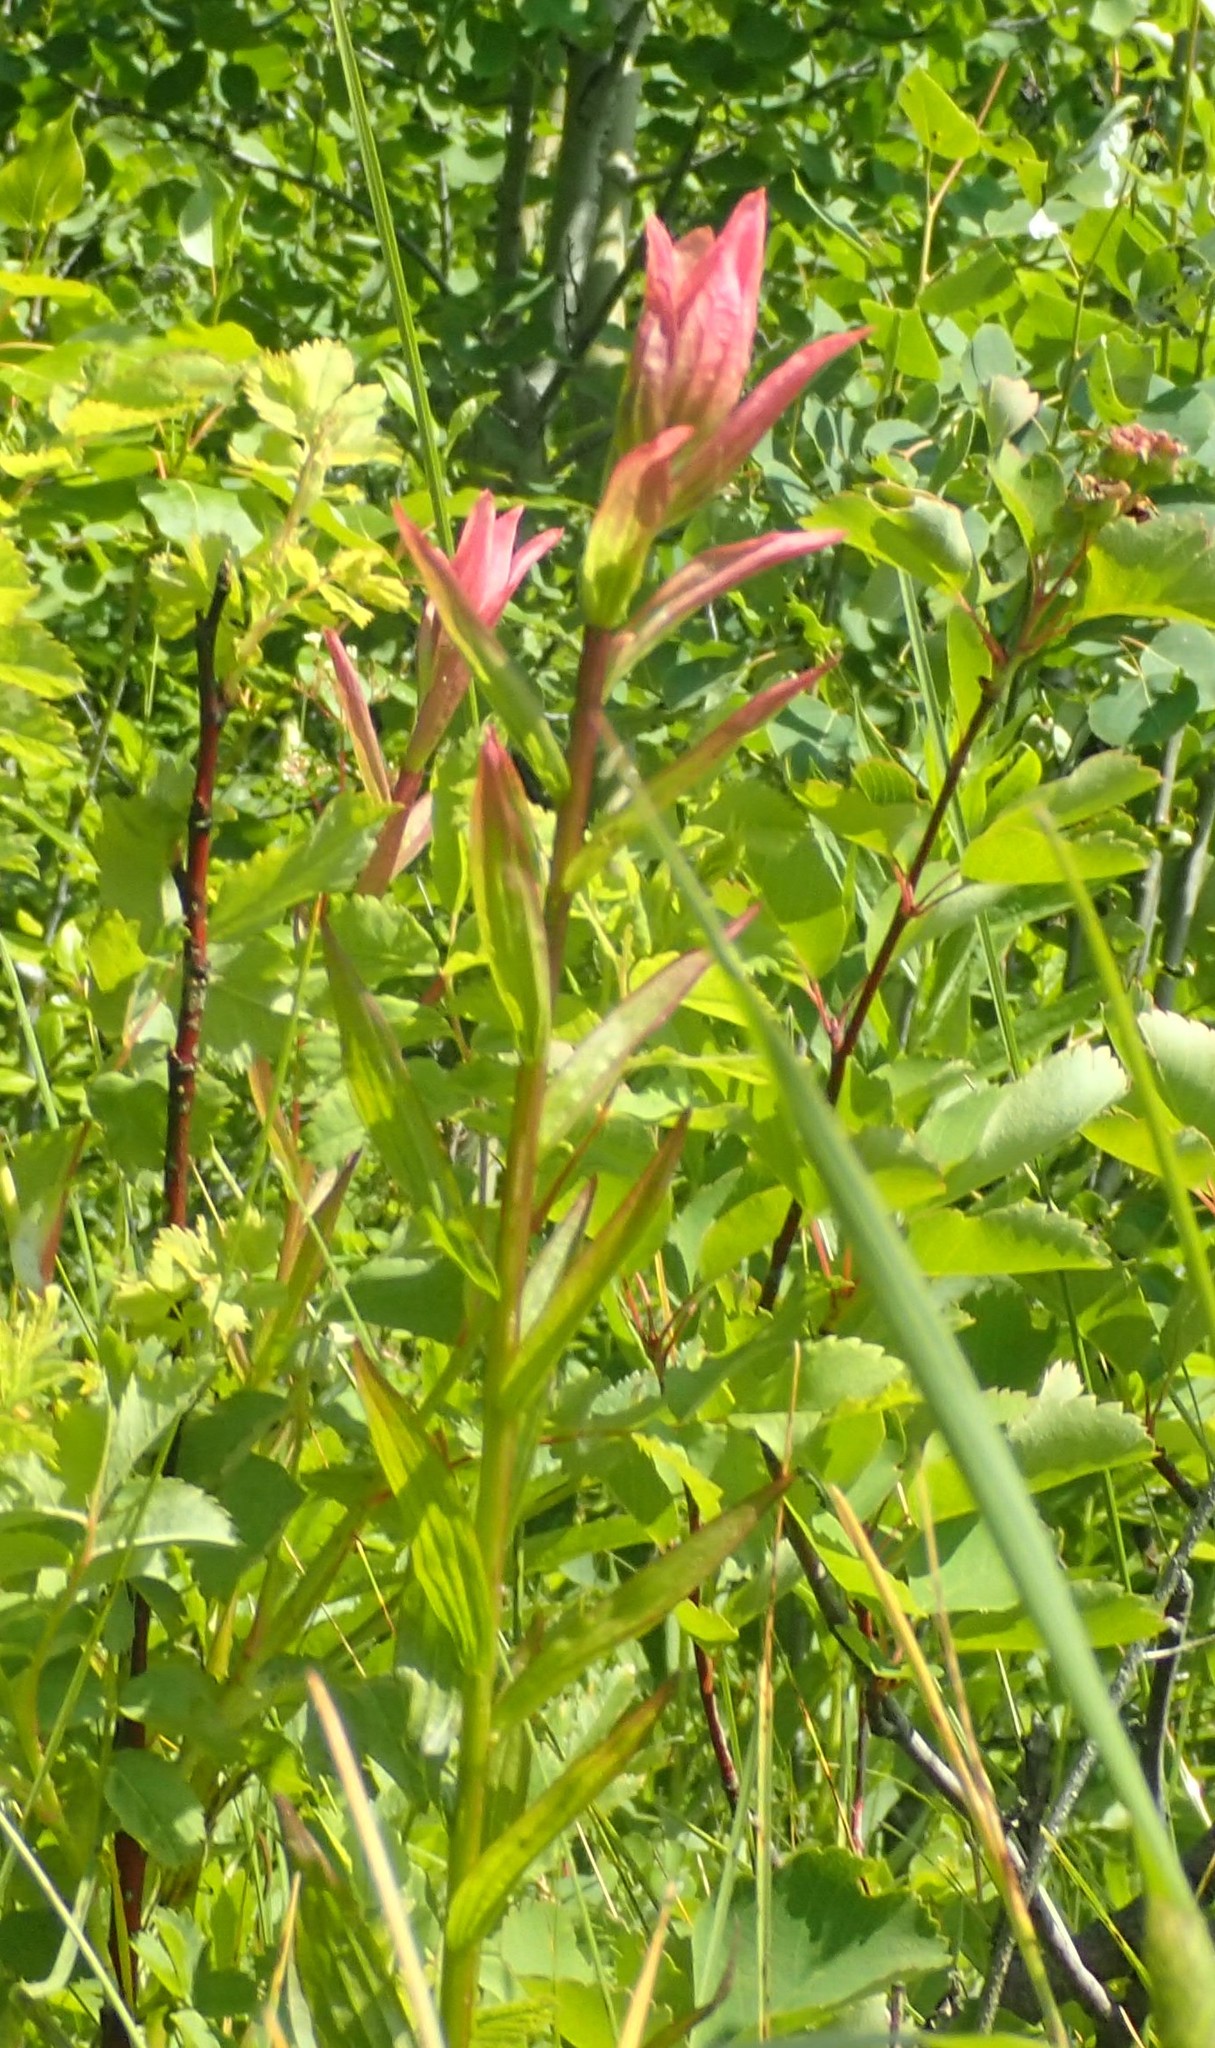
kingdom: Plantae
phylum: Tracheophyta
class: Magnoliopsida
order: Lamiales
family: Orobanchaceae
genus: Castilleja
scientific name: Castilleja miniata
